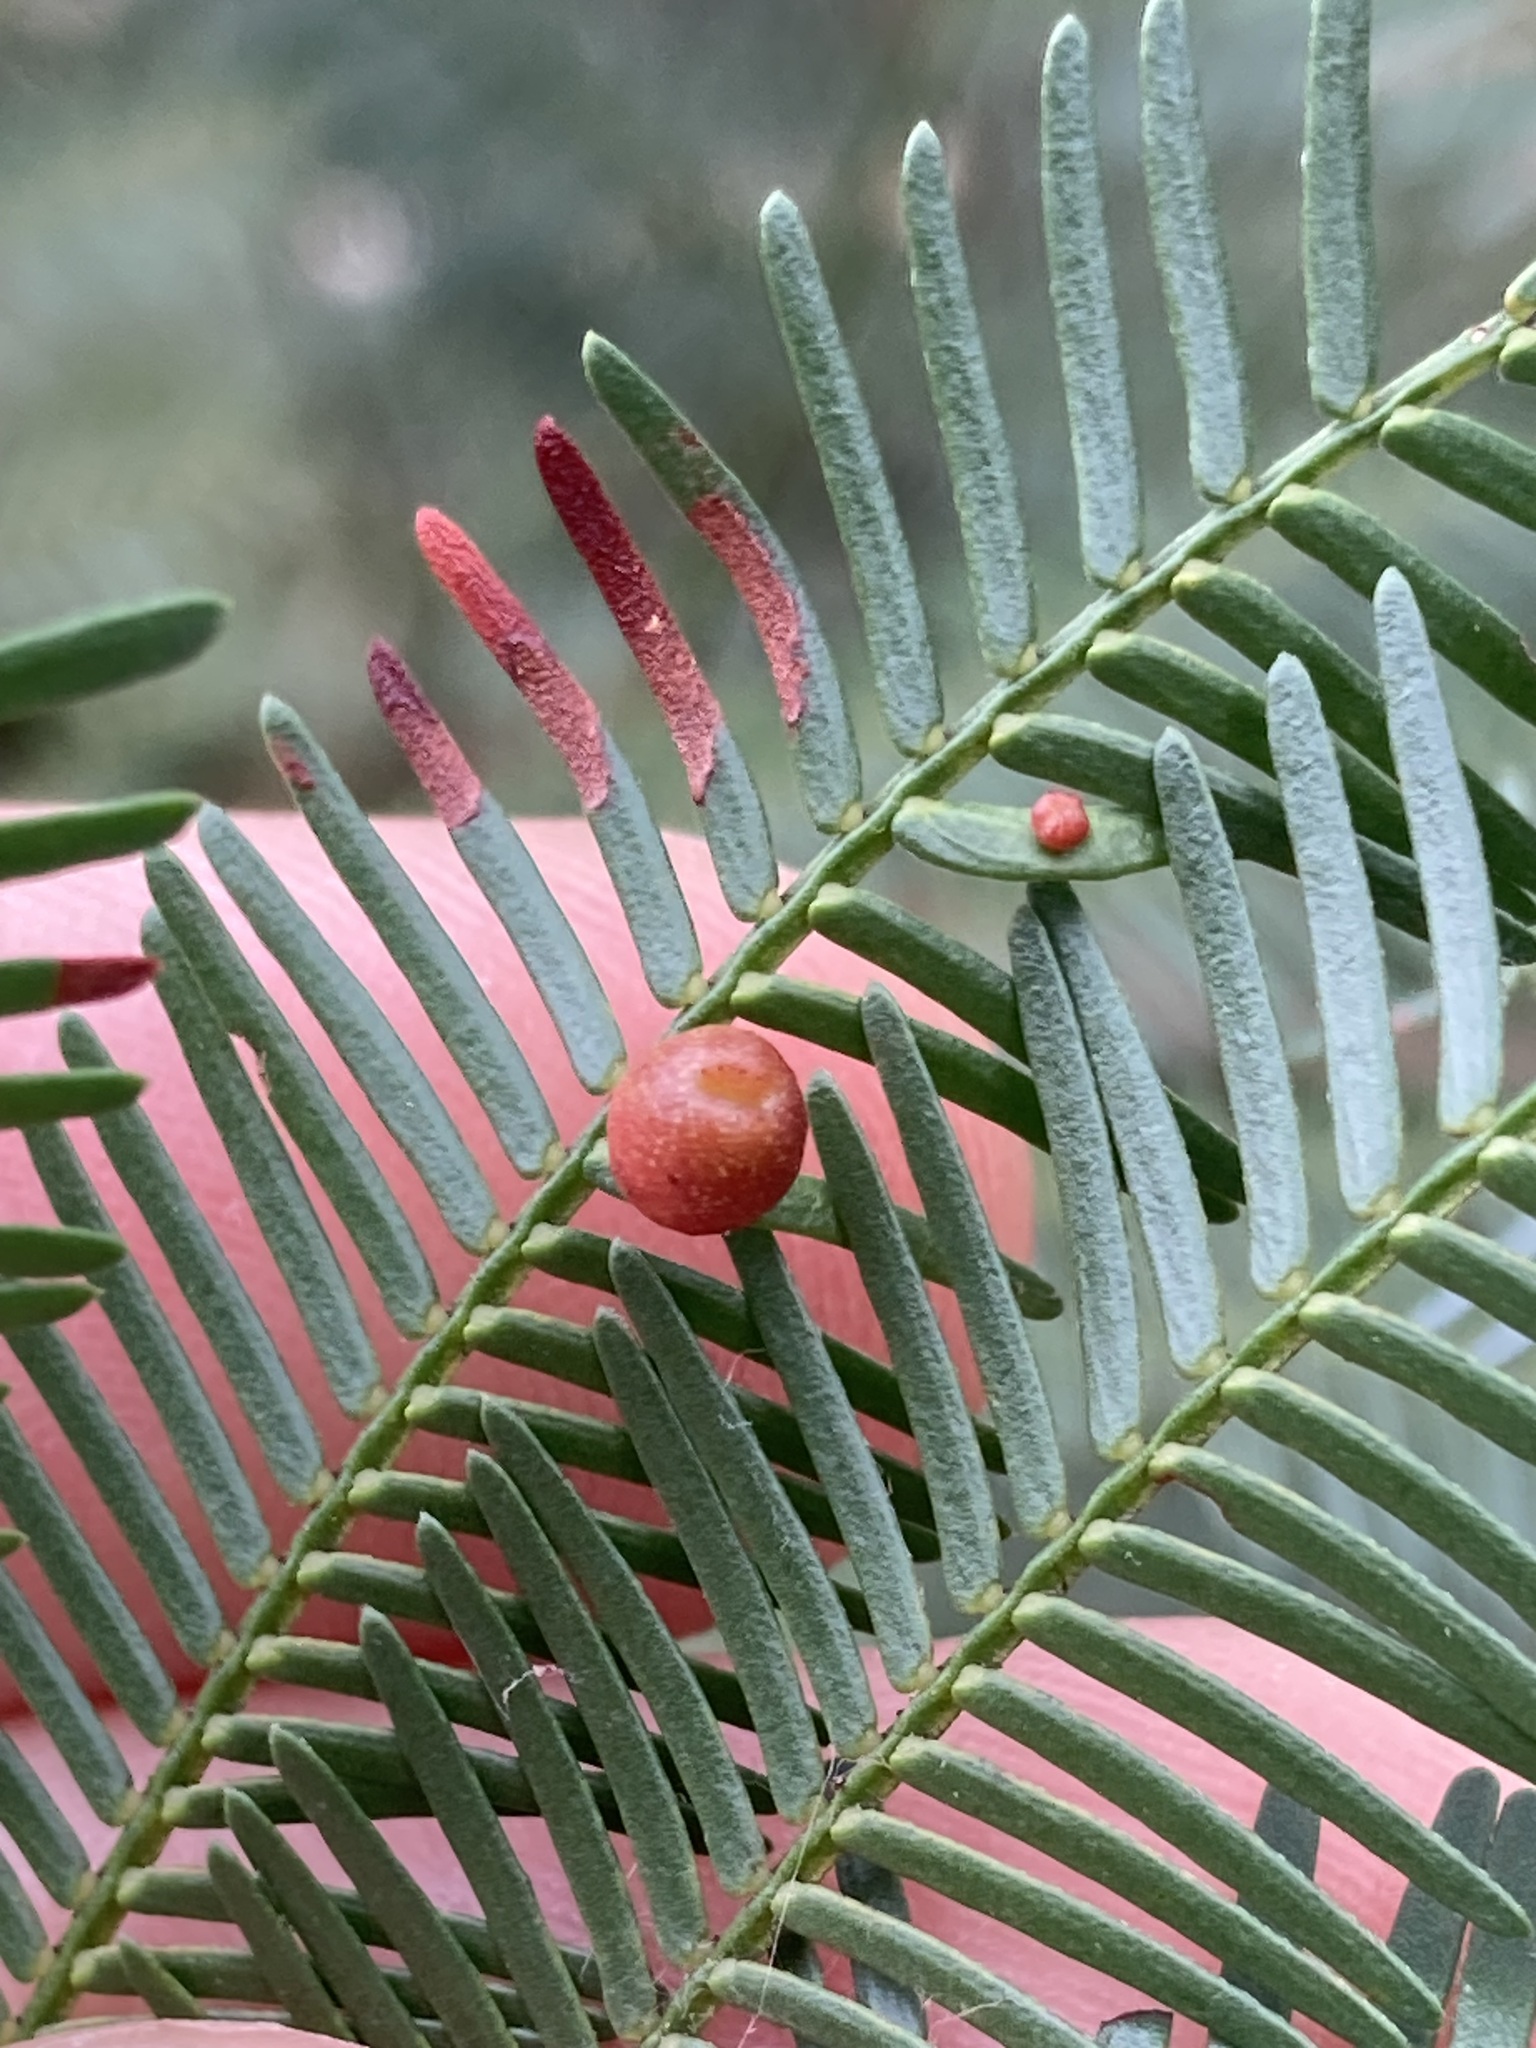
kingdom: Animalia
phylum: Arthropoda
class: Insecta
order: Diptera
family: Cecidomyiidae
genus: Austroacacidiplosis
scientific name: Austroacacidiplosis botrycephalae
